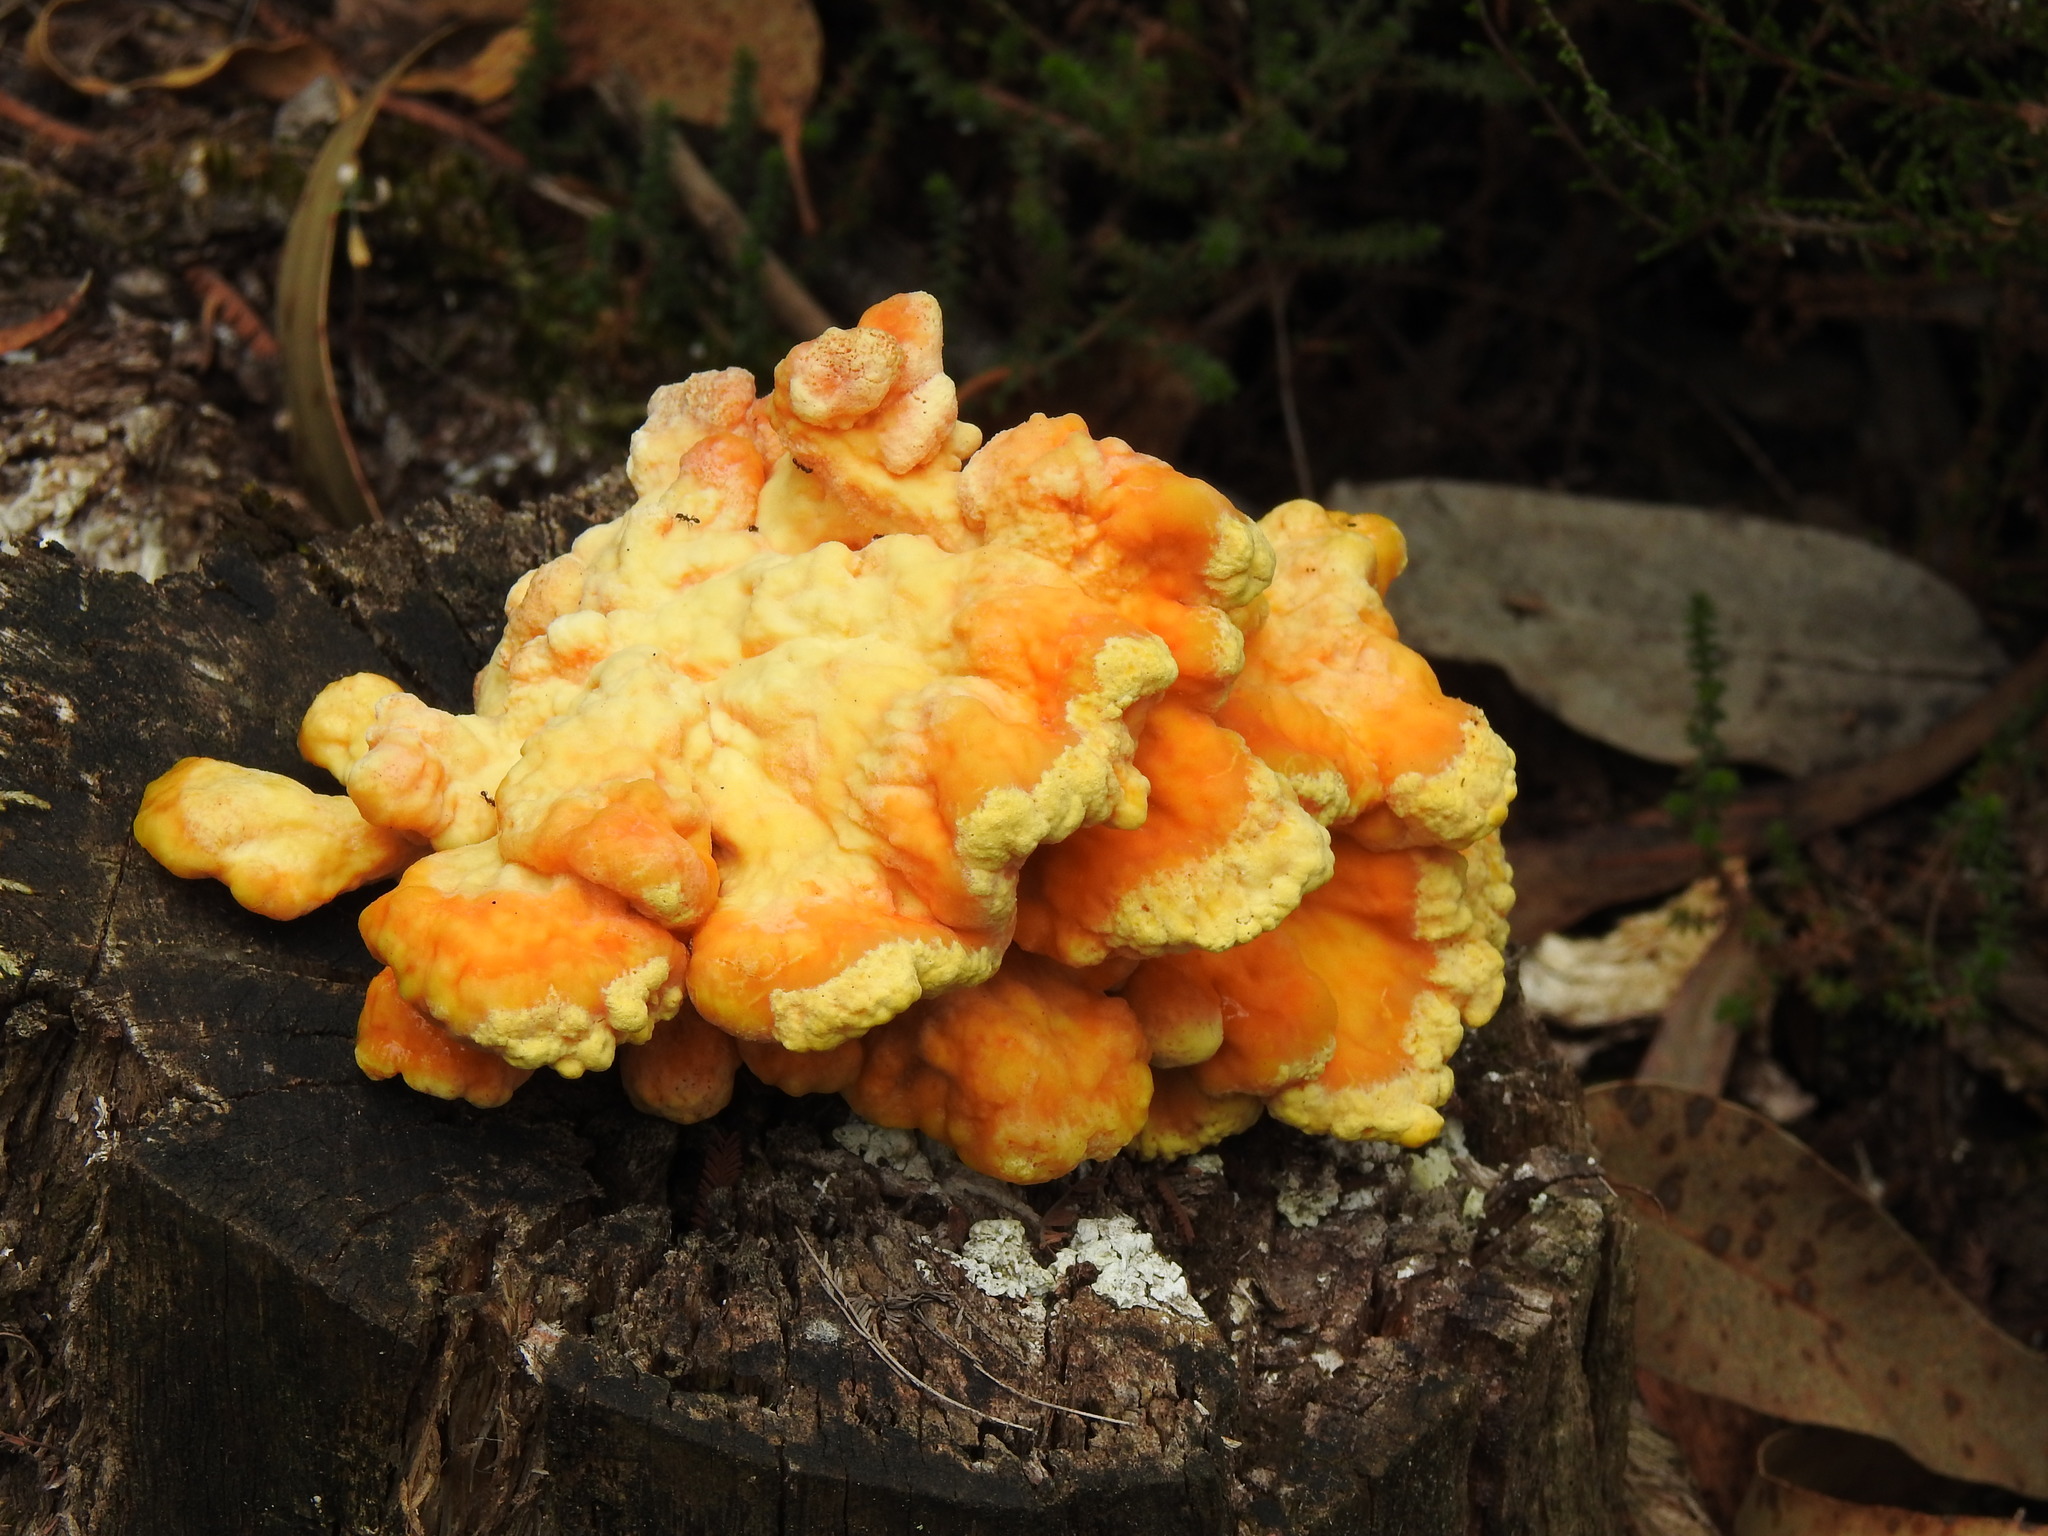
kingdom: Fungi
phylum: Basidiomycota
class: Agaricomycetes
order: Polyporales
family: Laetiporaceae
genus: Laetiporus
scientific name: Laetiporus sulphureus
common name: Chicken of the woods
